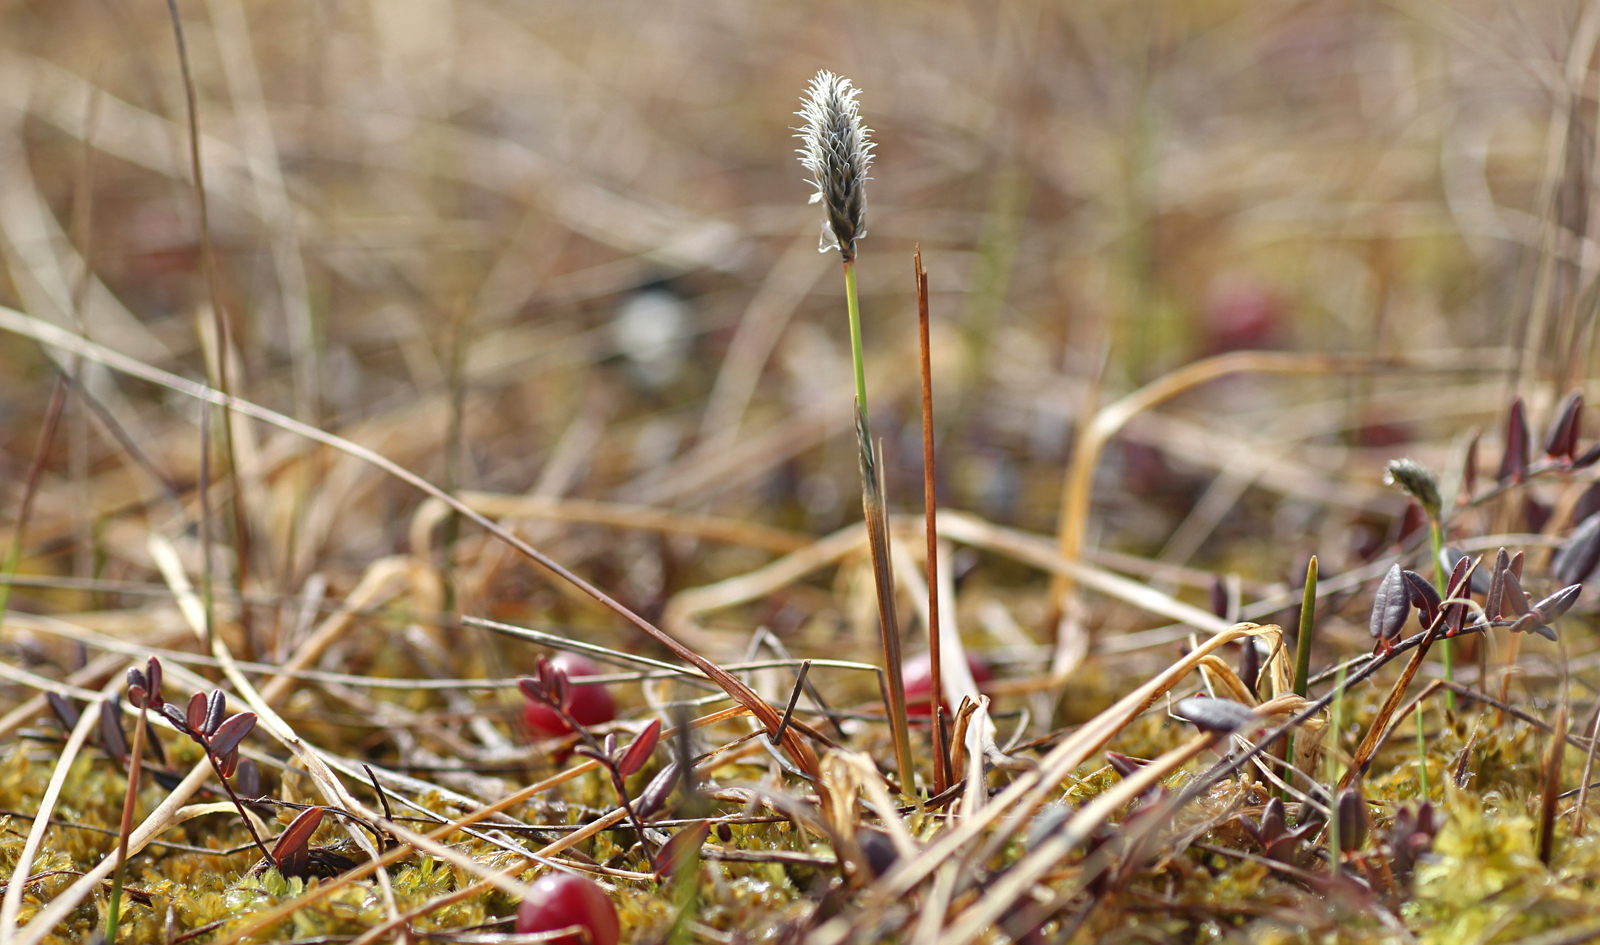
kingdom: Plantae
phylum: Tracheophyta
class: Liliopsida
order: Poales
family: Cyperaceae
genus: Eriophorum
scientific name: Eriophorum chamissonis
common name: Chamisso's cottongrass
